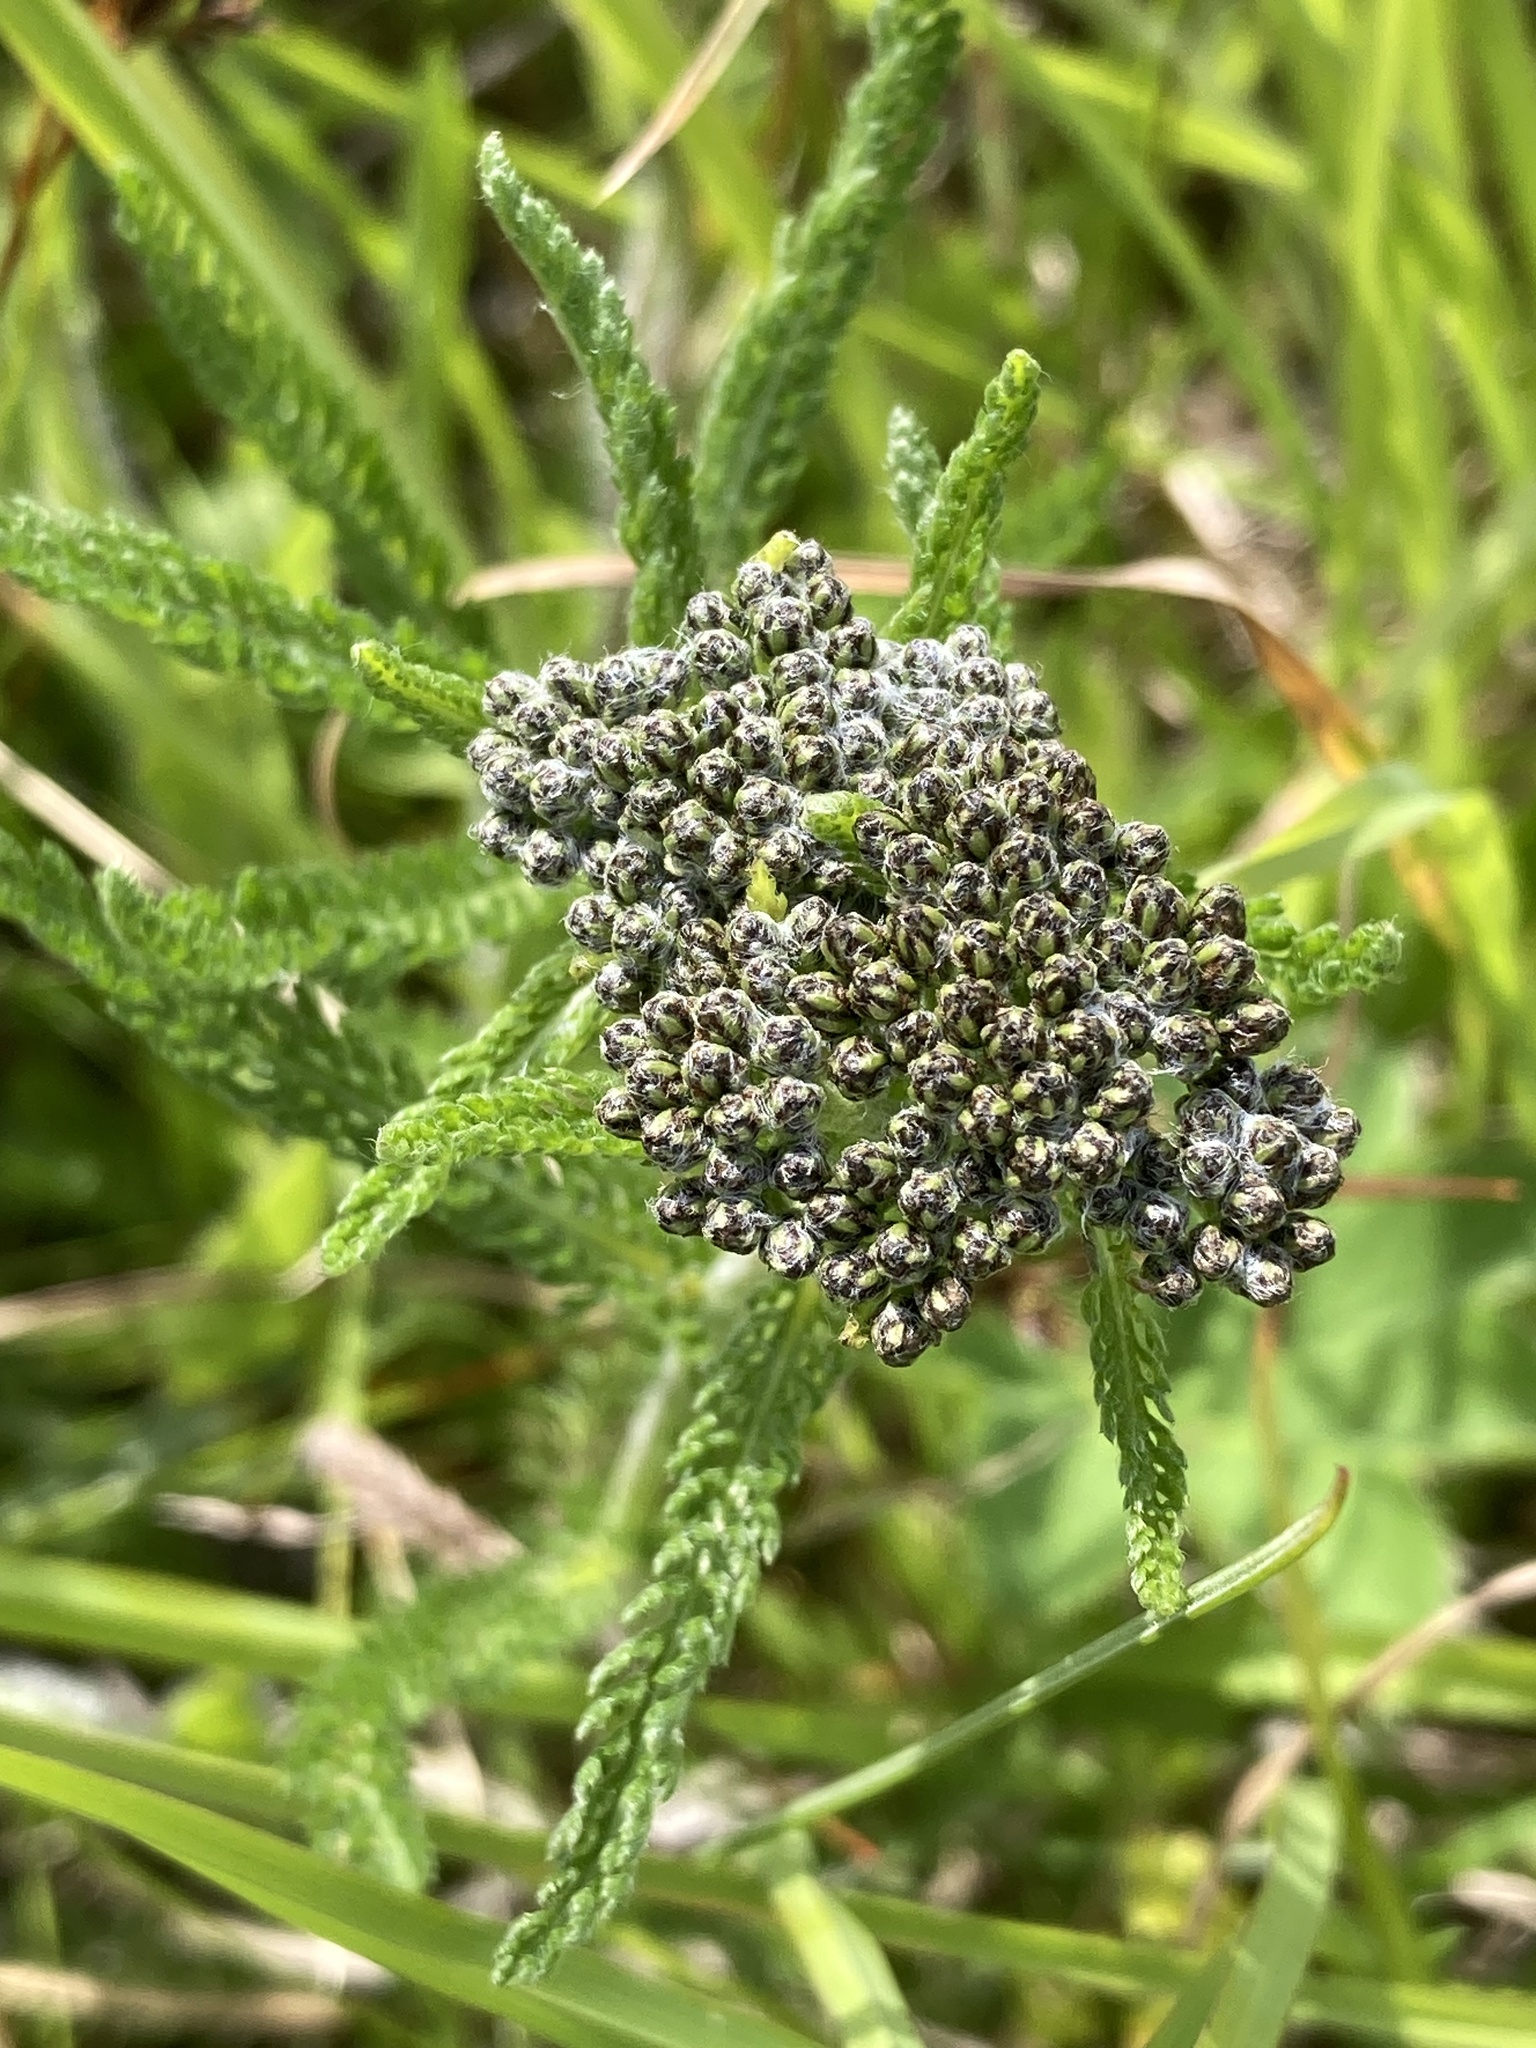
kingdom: Plantae
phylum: Tracheophyta
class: Magnoliopsida
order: Asterales
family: Asteraceae
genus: Achillea
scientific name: Achillea millefolium
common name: Yarrow
